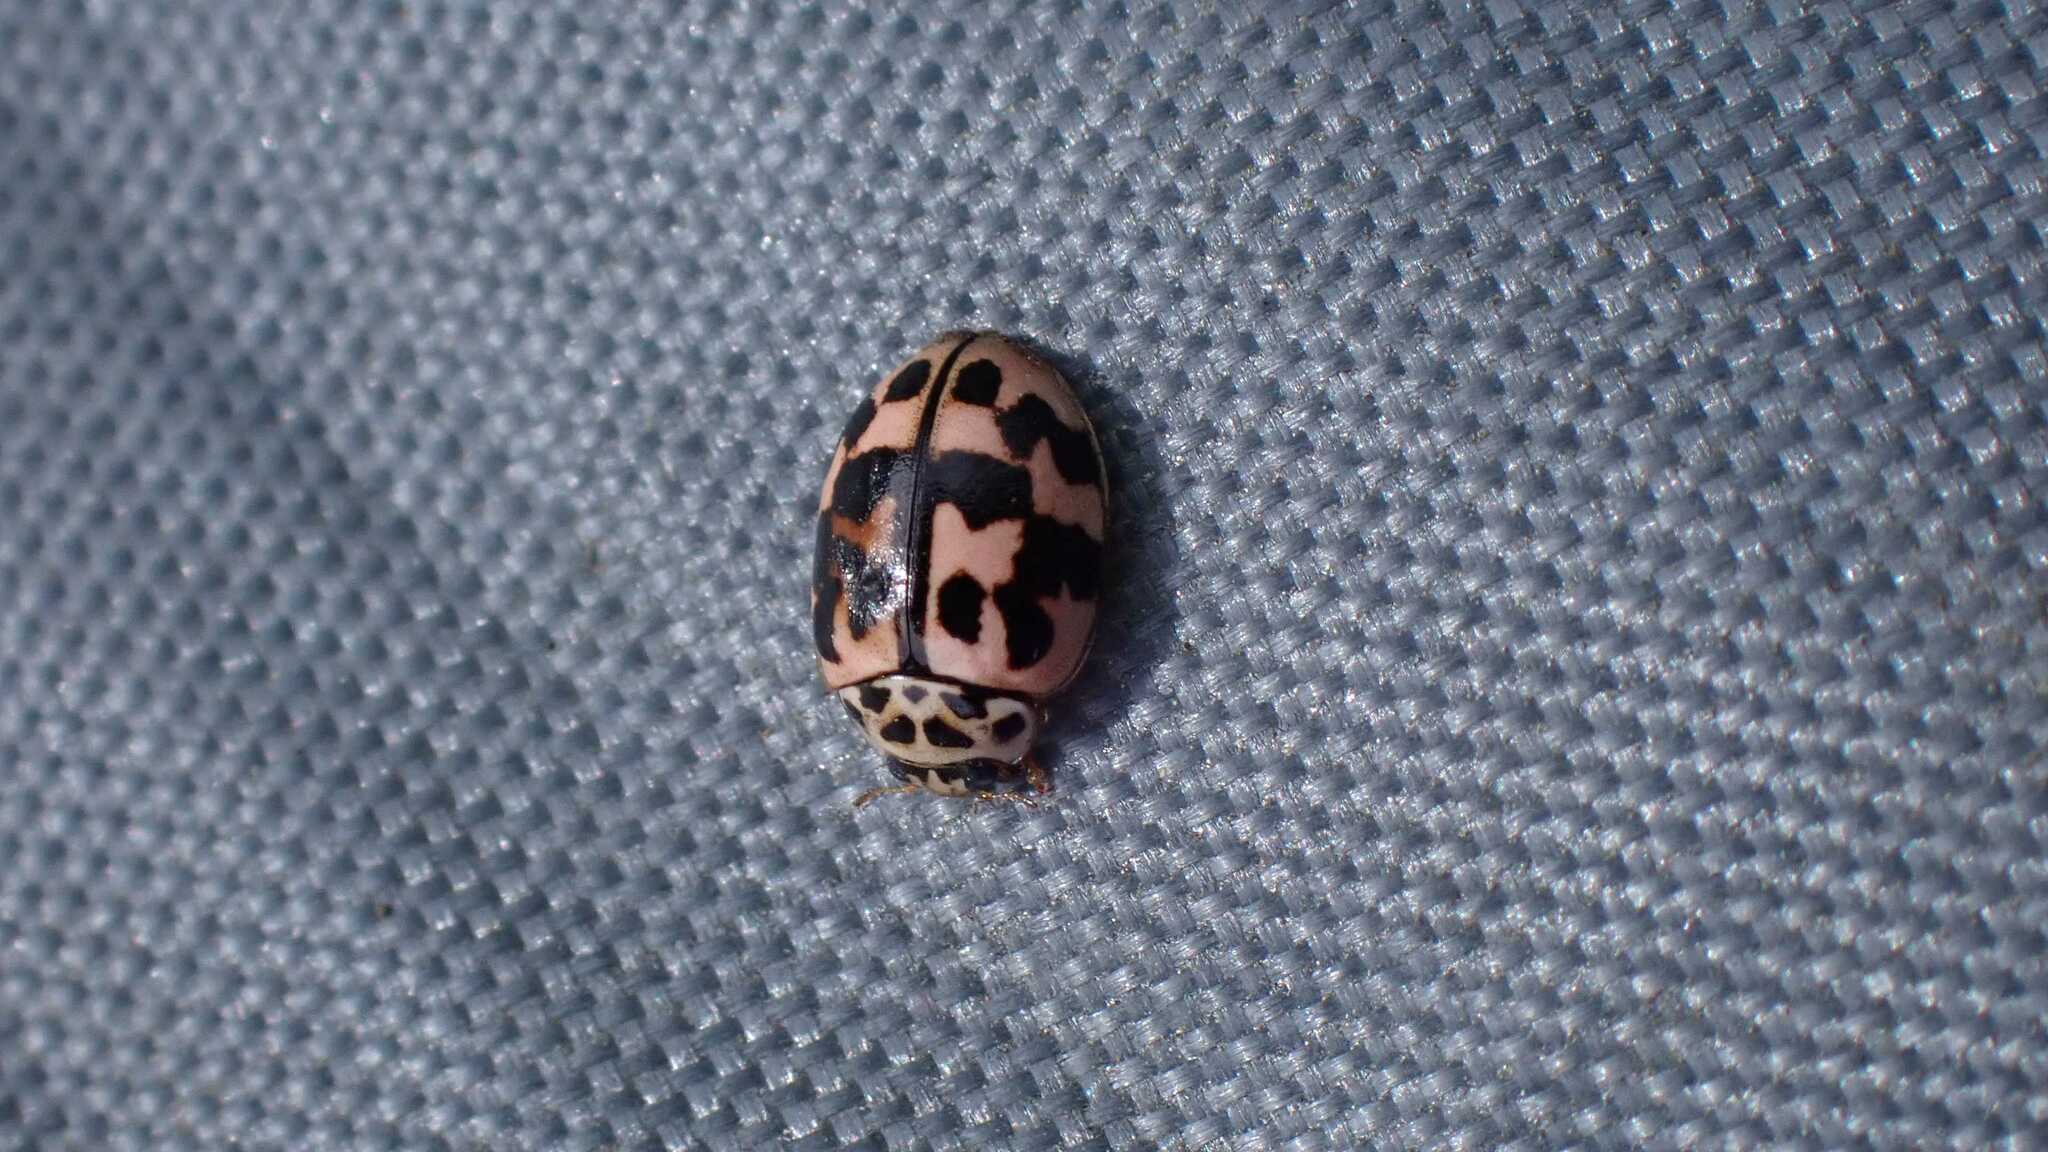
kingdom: Animalia
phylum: Arthropoda
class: Insecta
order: Coleoptera
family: Coccinellidae
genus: Oenopia
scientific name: Oenopia conglobata
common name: Ladybird beetle
